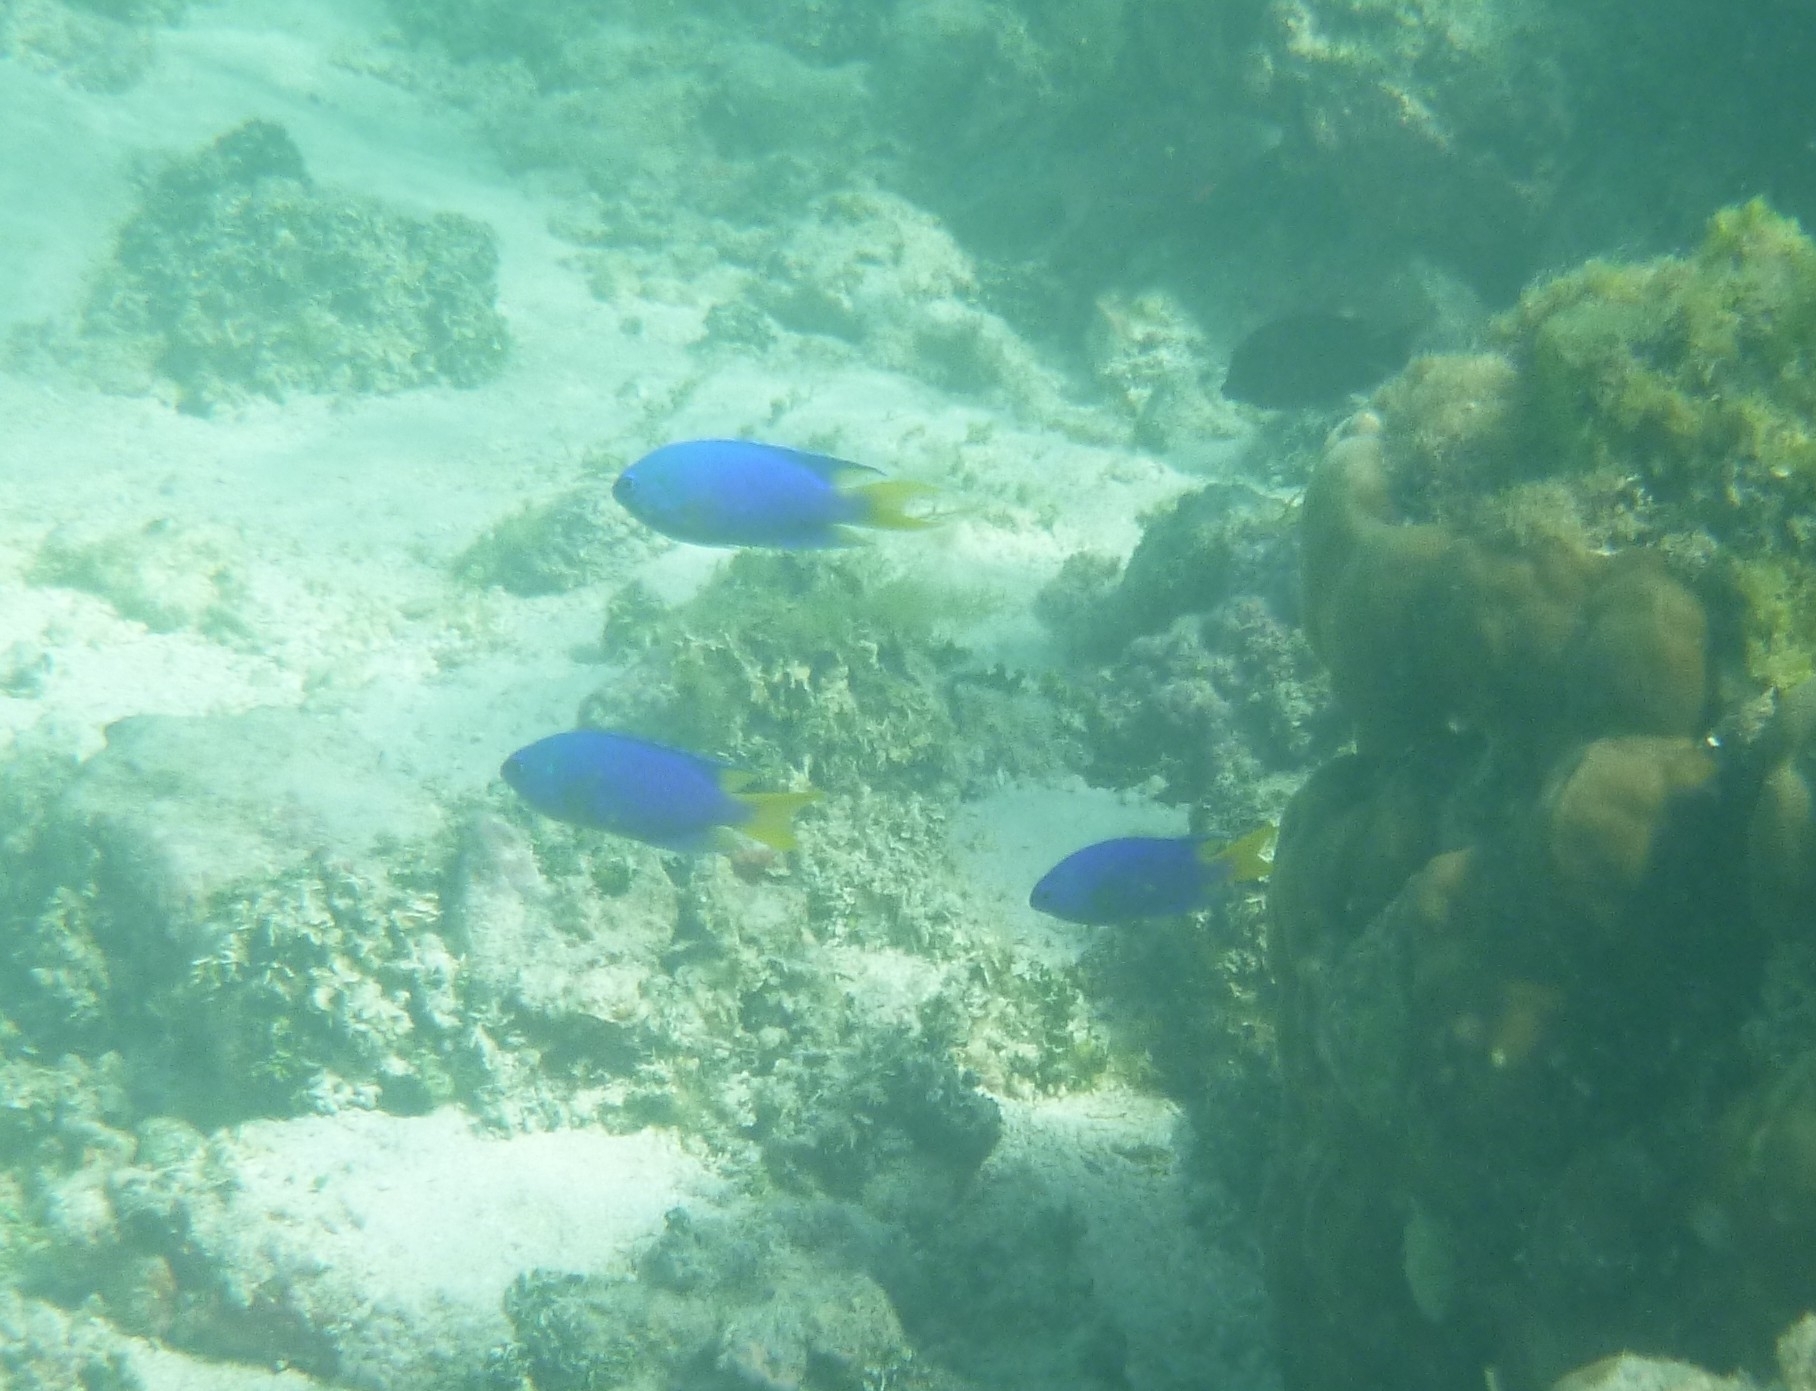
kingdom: Animalia
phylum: Chordata
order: Perciformes
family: Pomacentridae
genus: Pomacentrus
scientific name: Pomacentrus pavo
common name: Sapphire damsel
